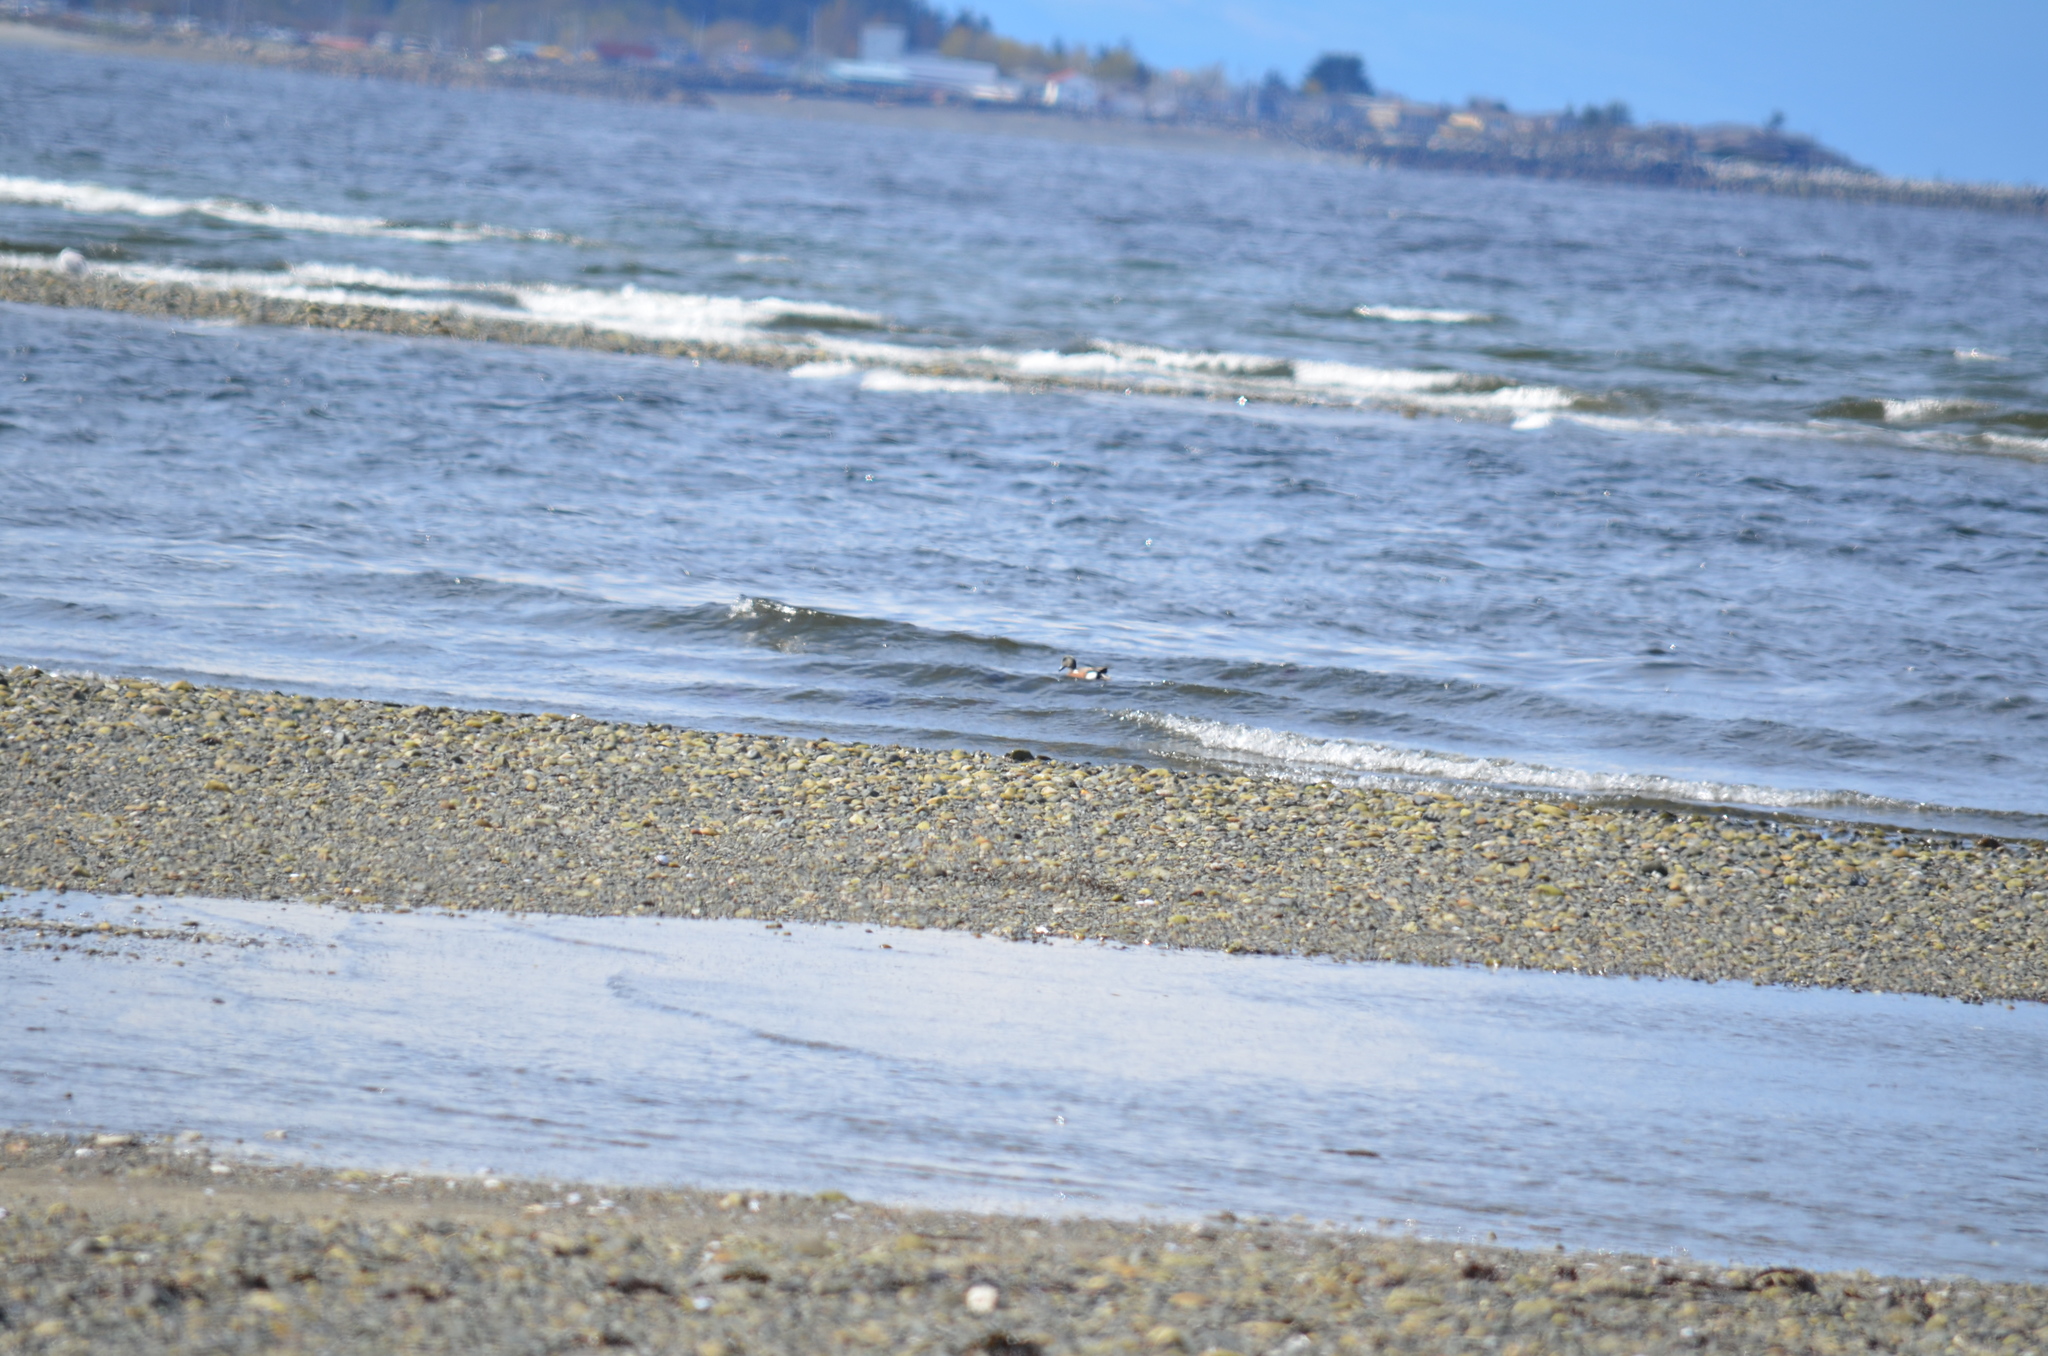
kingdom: Animalia
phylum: Chordata
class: Aves
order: Anseriformes
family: Anatidae
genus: Mareca
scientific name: Mareca americana
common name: American wigeon
